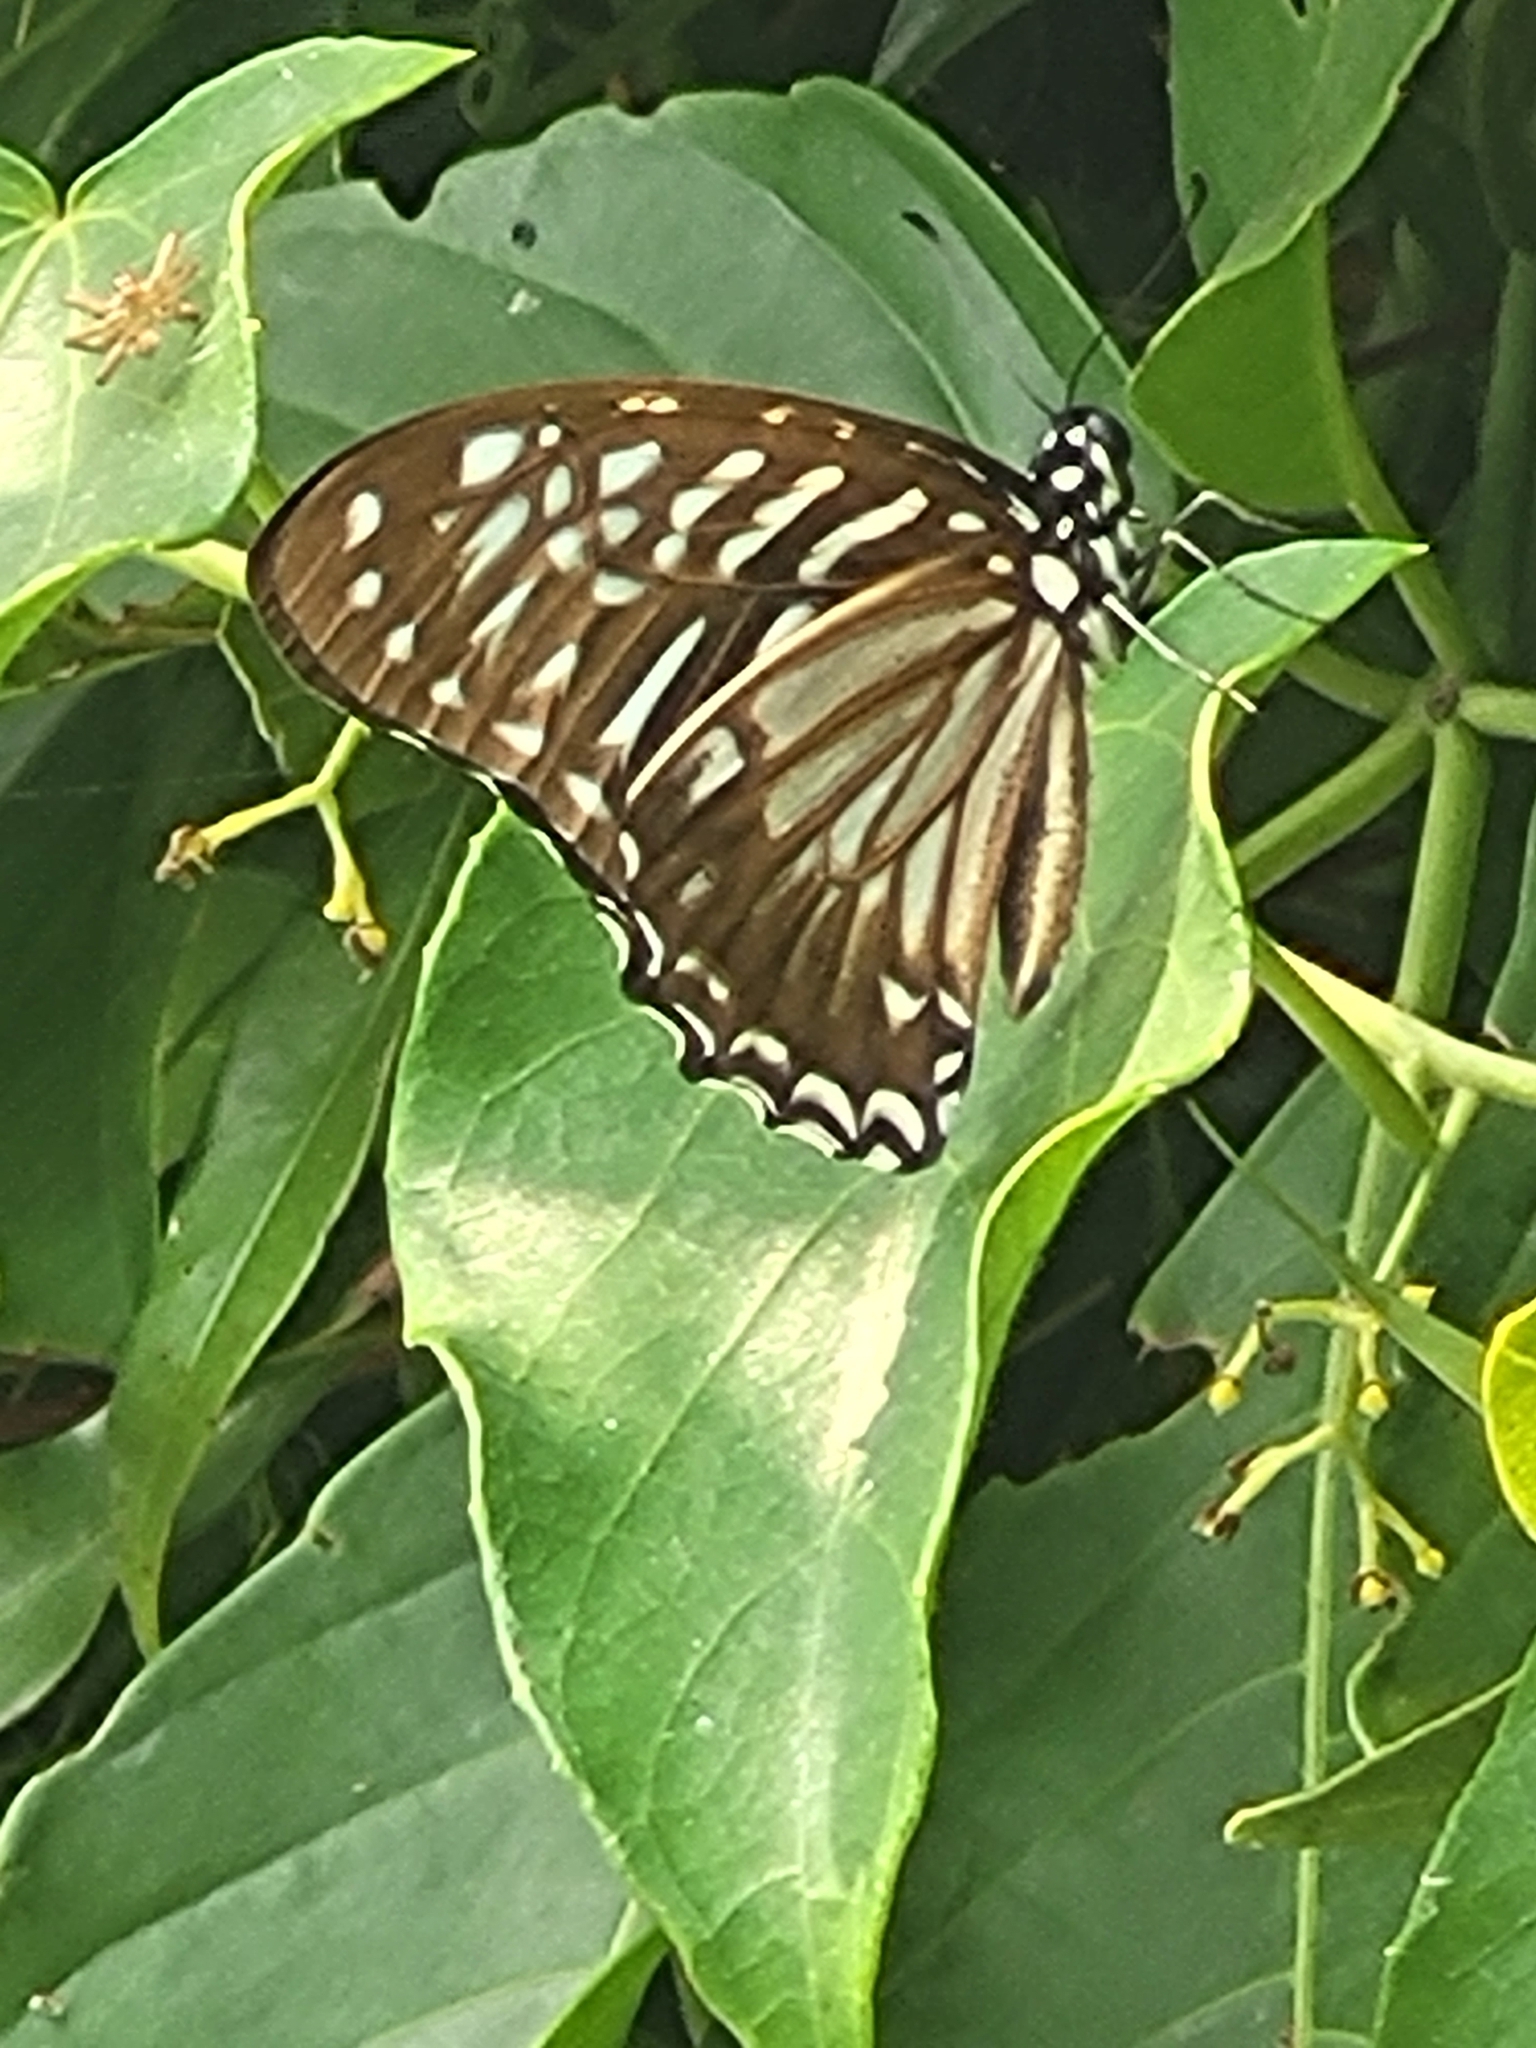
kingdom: Animalia
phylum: Arthropoda
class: Insecta
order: Lepidoptera
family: Papilionidae
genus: Graphium
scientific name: Graphium macareus
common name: Lesser zebra
